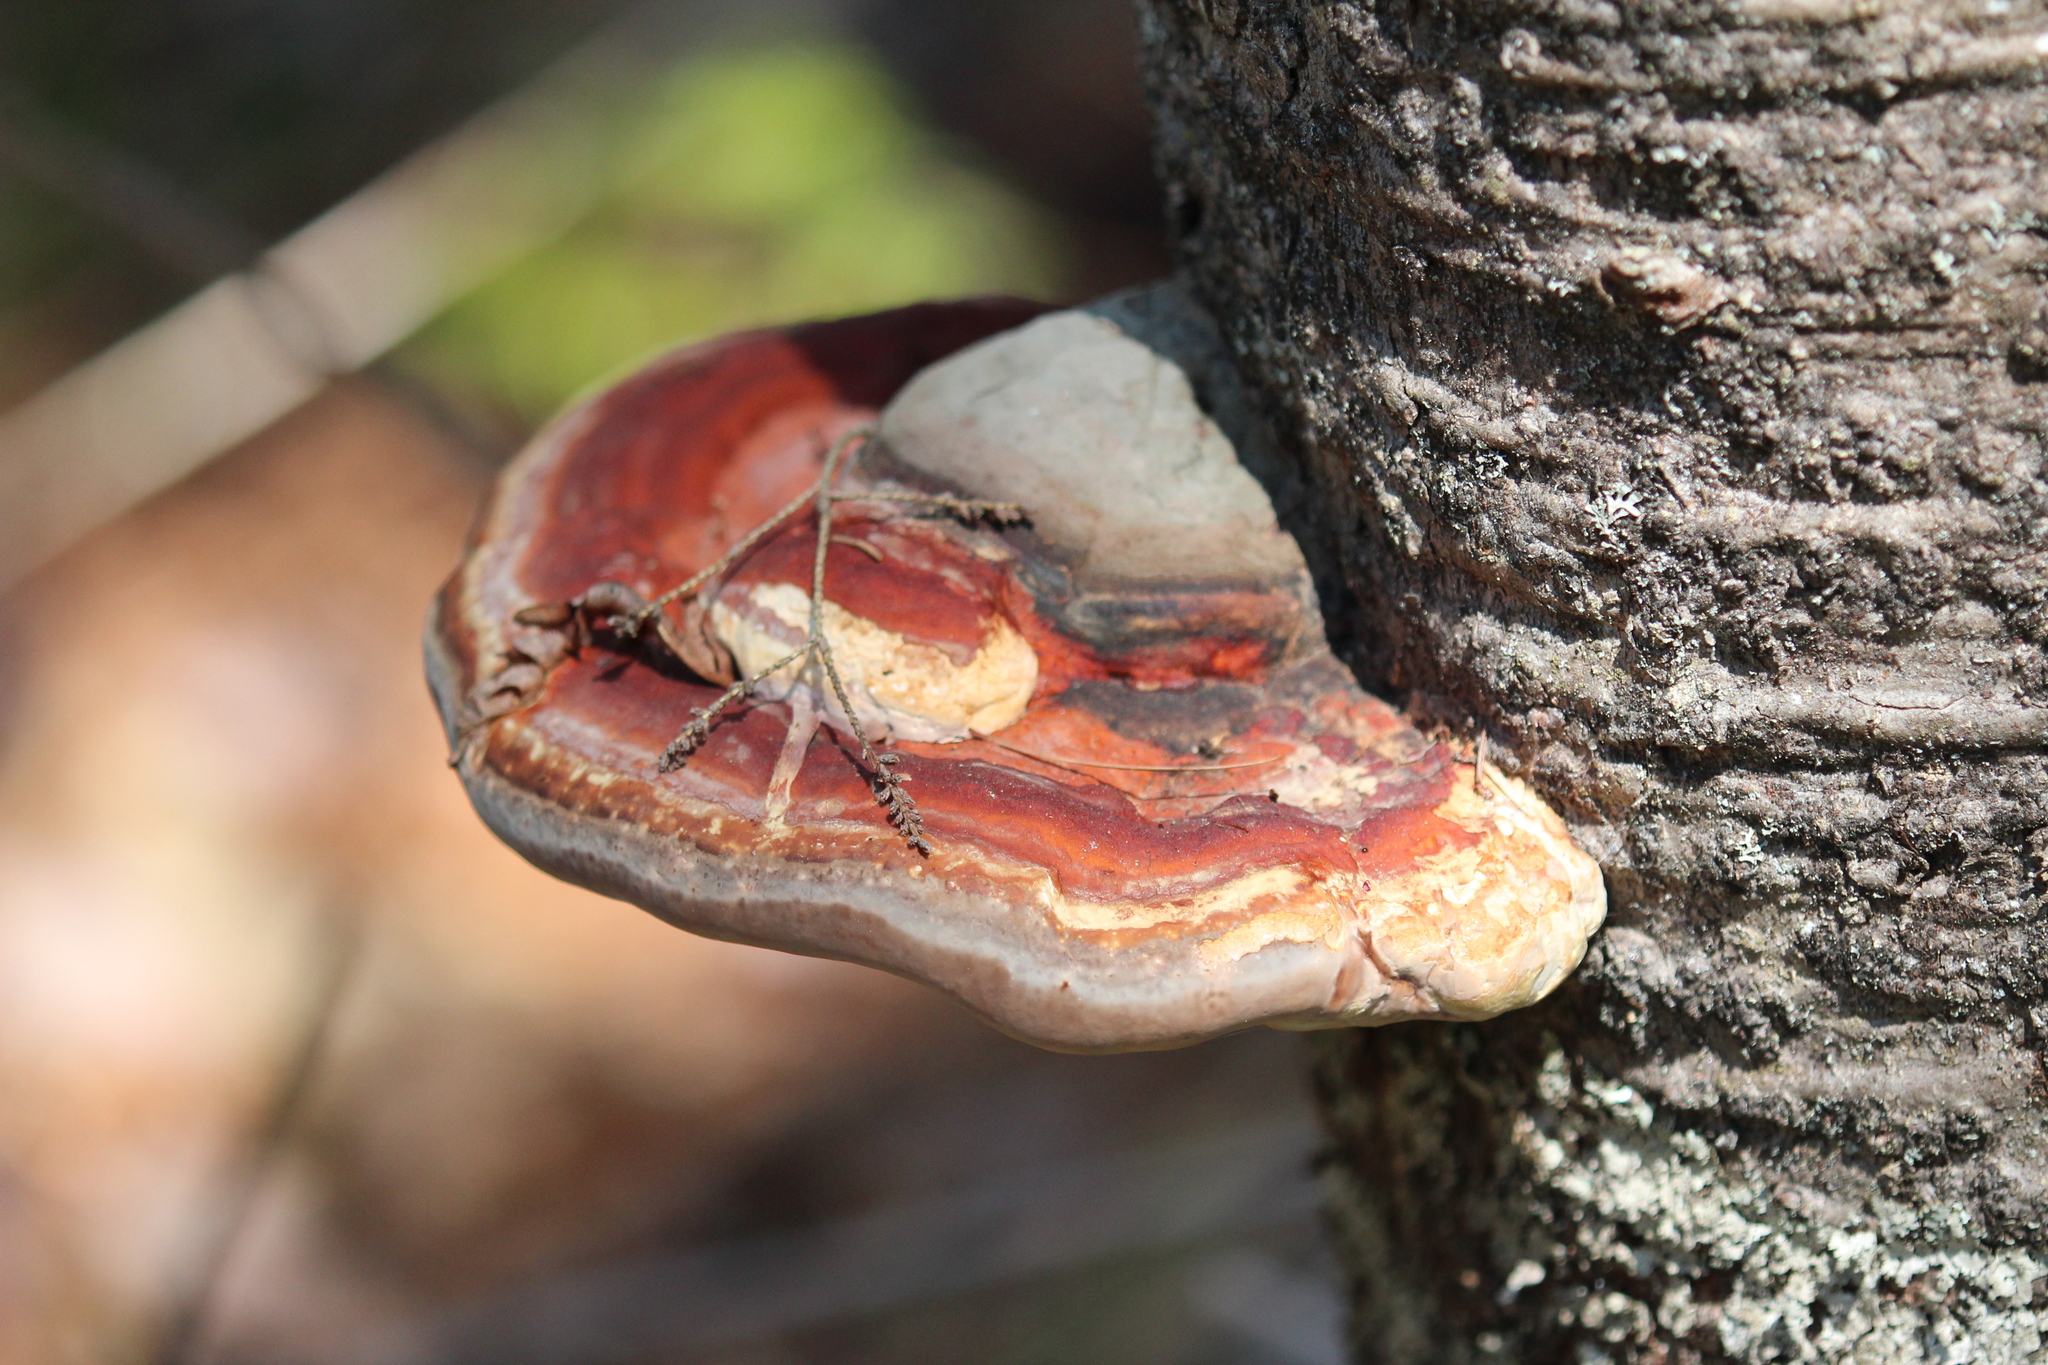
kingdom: Fungi
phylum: Basidiomycota
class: Agaricomycetes
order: Polyporales
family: Fomitopsidaceae
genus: Fomitopsis
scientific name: Fomitopsis mounceae
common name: Northern red belt
